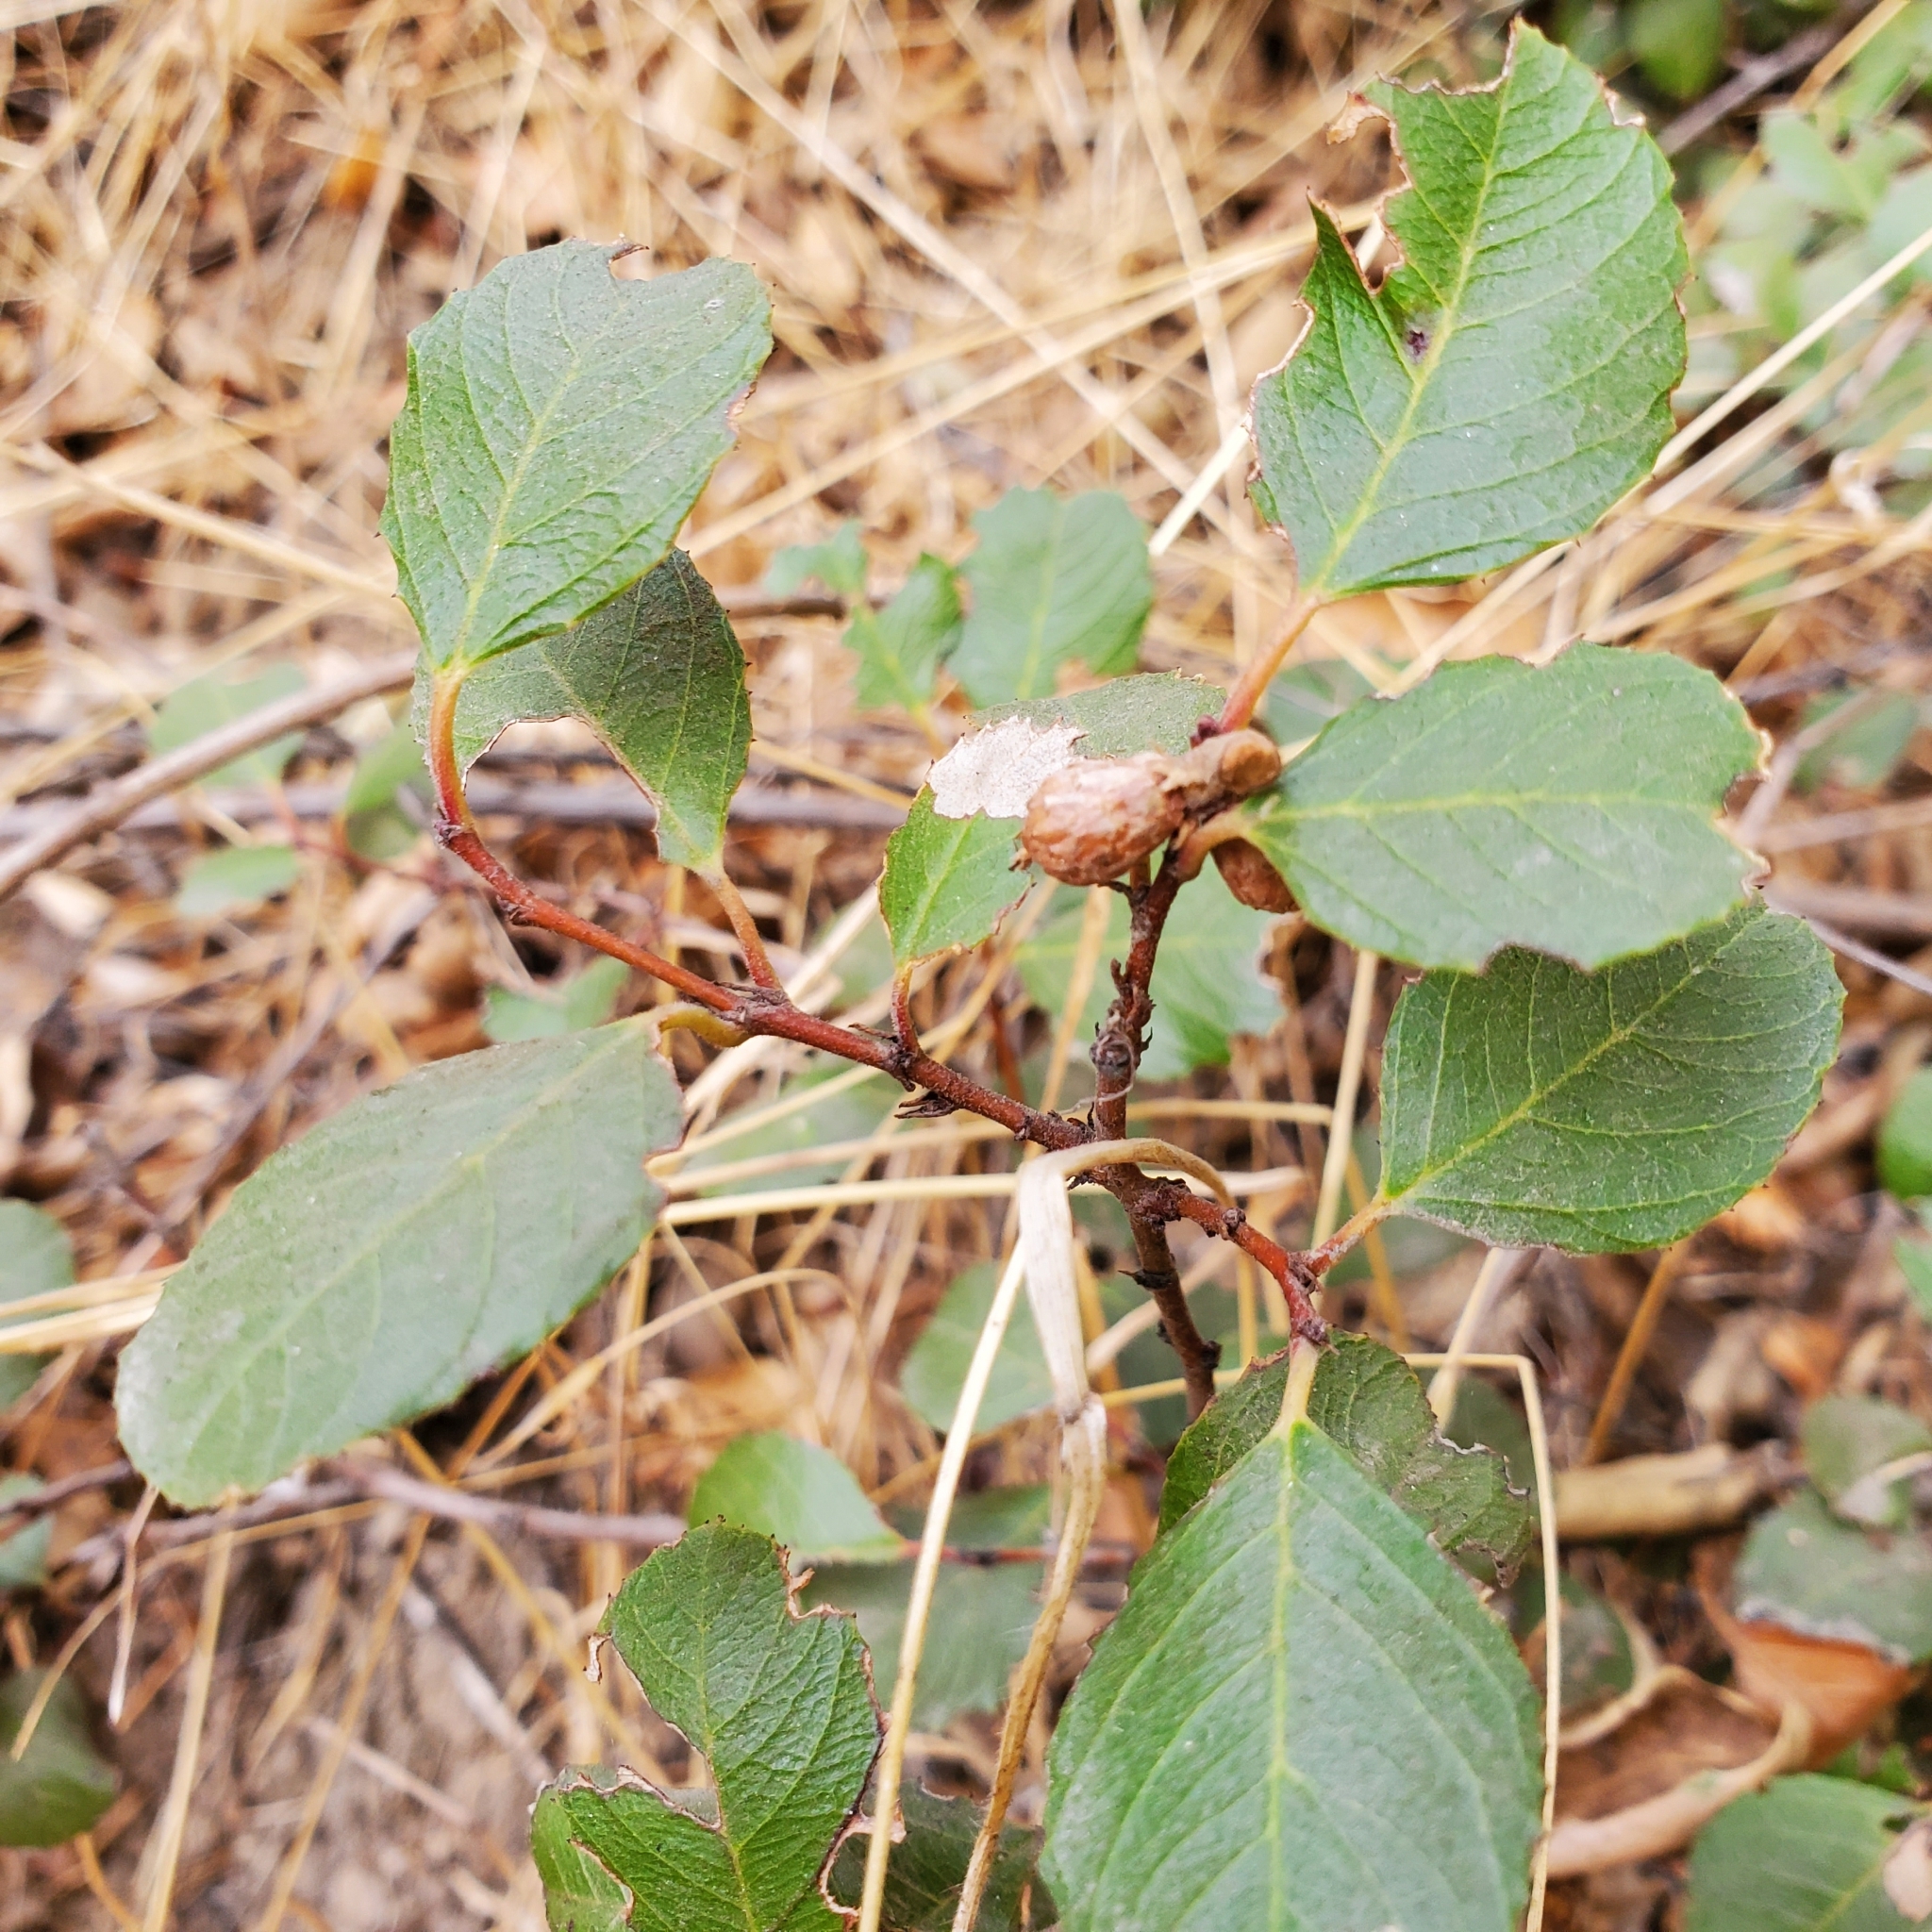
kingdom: Plantae
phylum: Tracheophyta
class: Magnoliopsida
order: Fagales
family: Fagaceae
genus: Quercus
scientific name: Quercus berberidifolia
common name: California scrub oak
